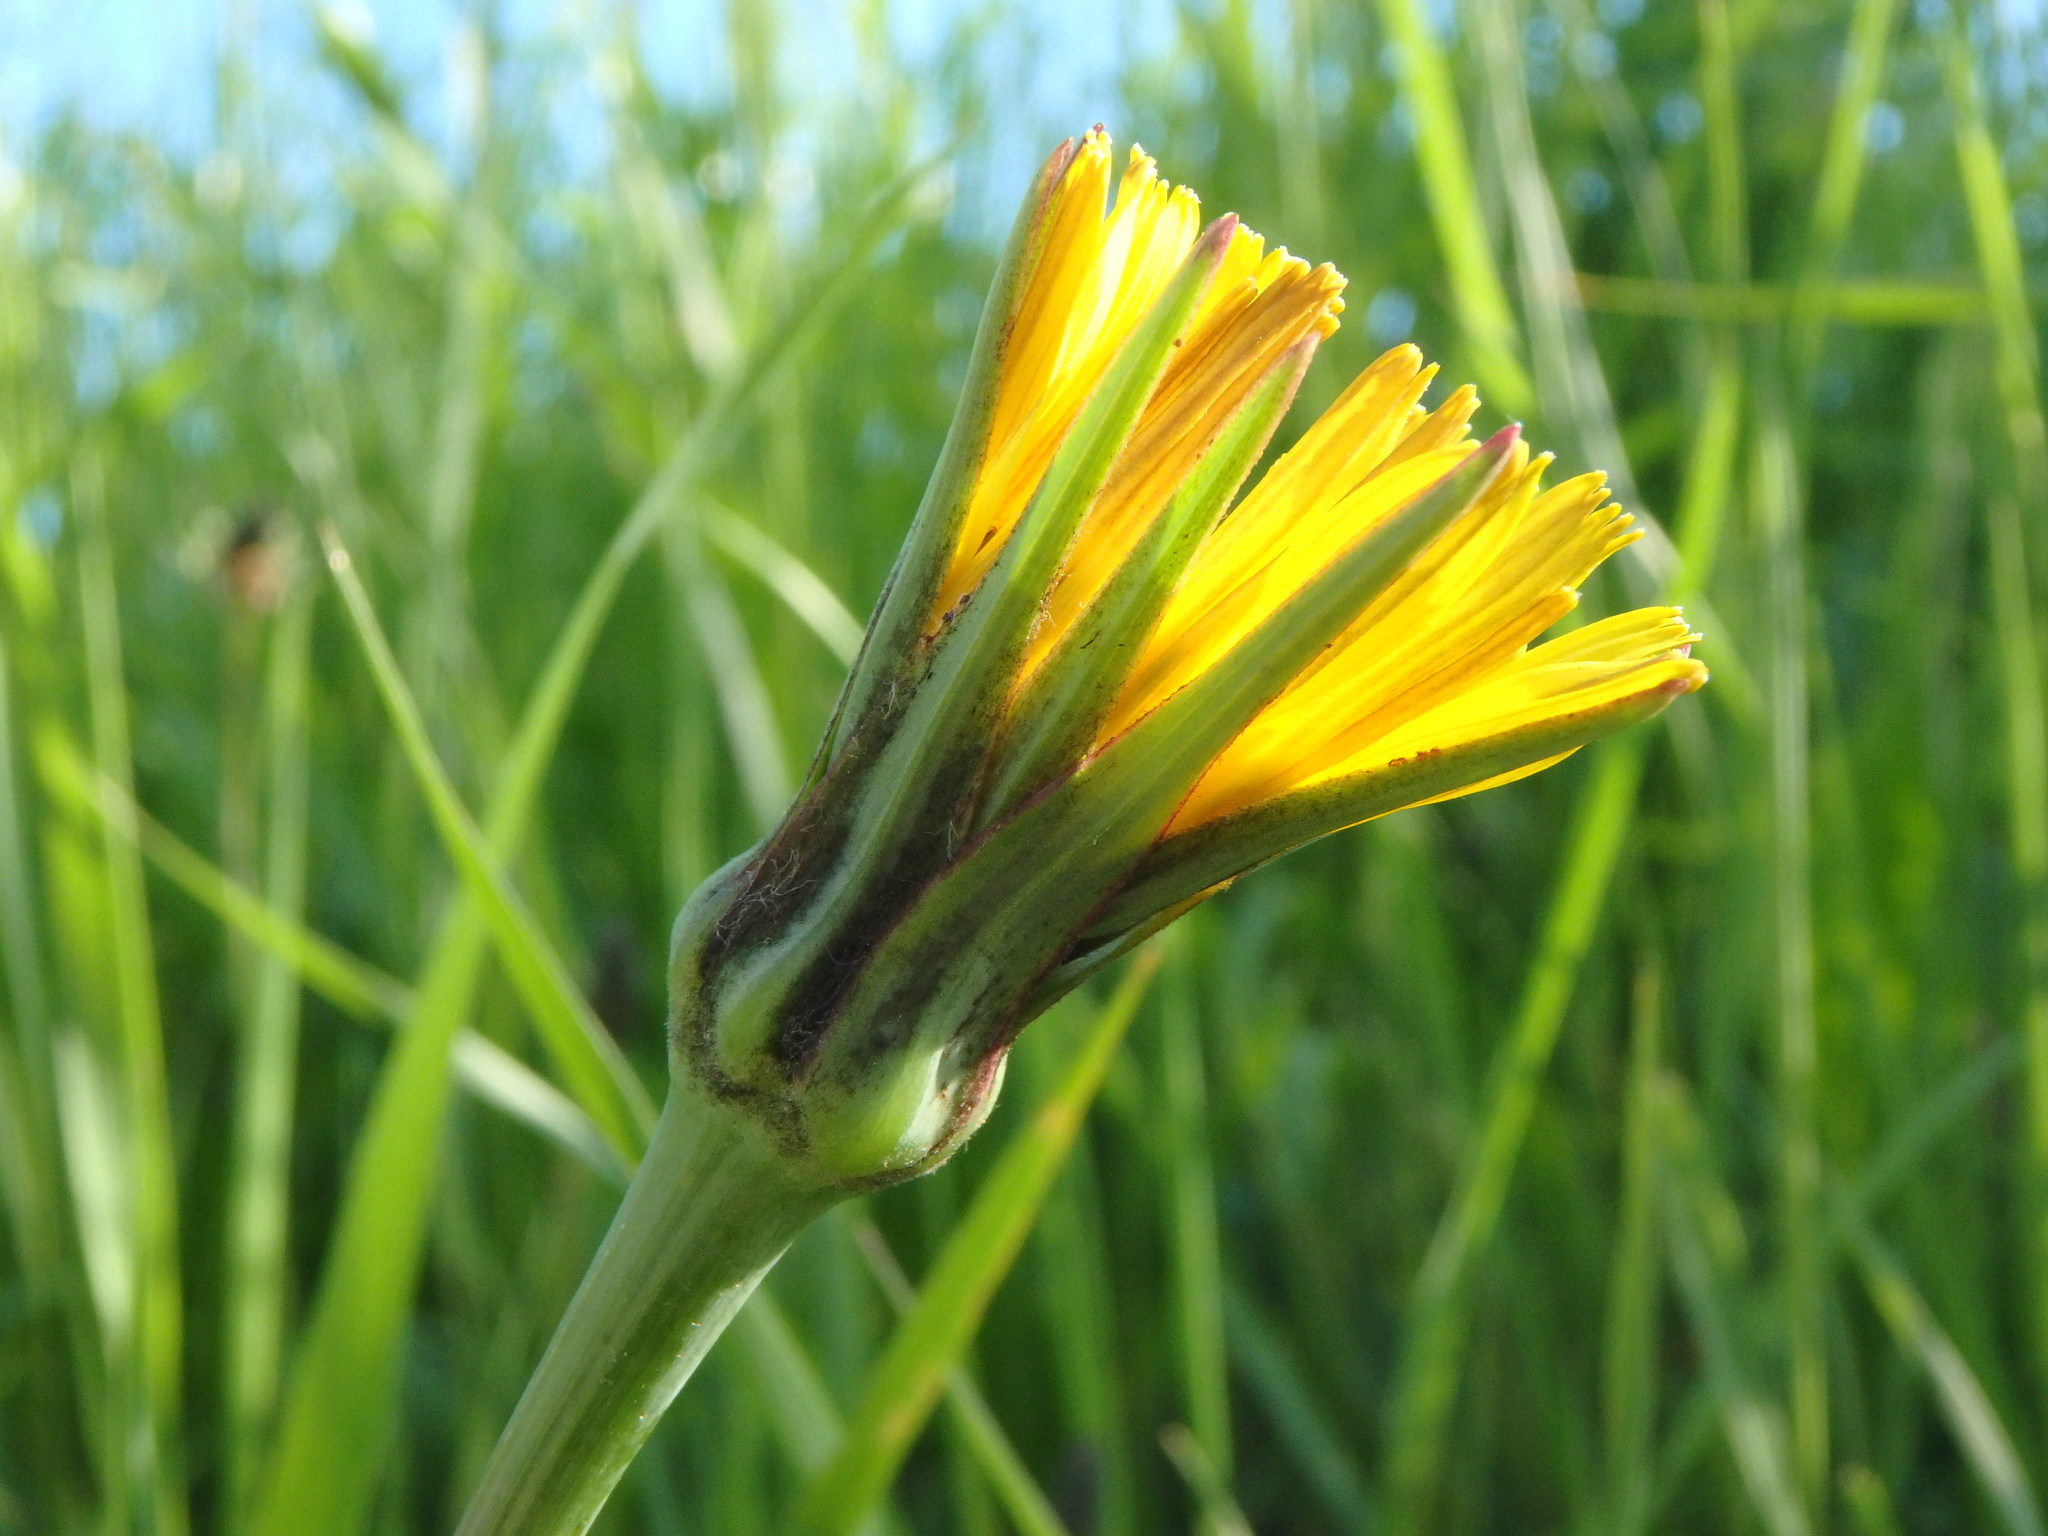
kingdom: Plantae
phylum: Tracheophyta
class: Magnoliopsida
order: Asterales
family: Asteraceae
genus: Tragopogon
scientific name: Tragopogon pratensis
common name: Goat's-beard
